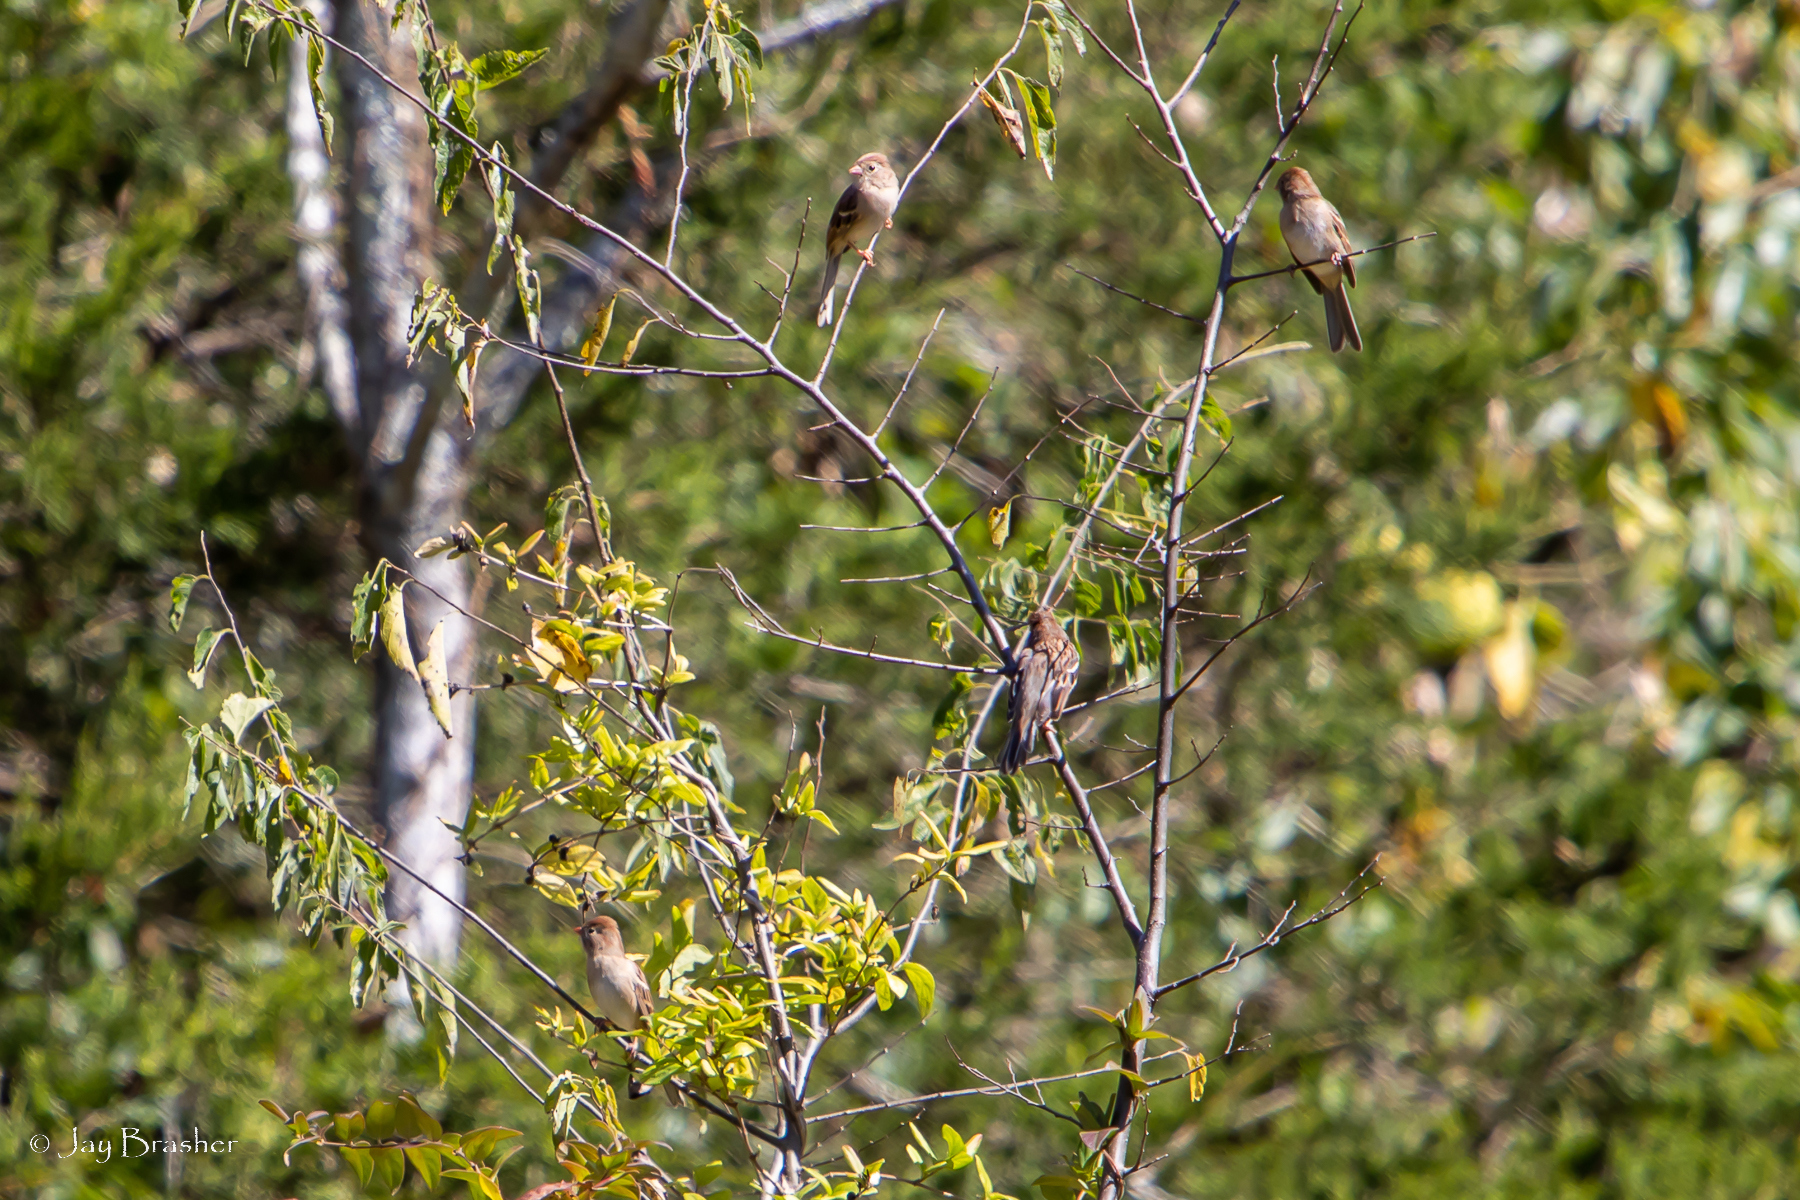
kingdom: Animalia
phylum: Chordata
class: Aves
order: Passeriformes
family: Passerellidae
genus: Spizella
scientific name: Spizella pusilla
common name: Field sparrow
